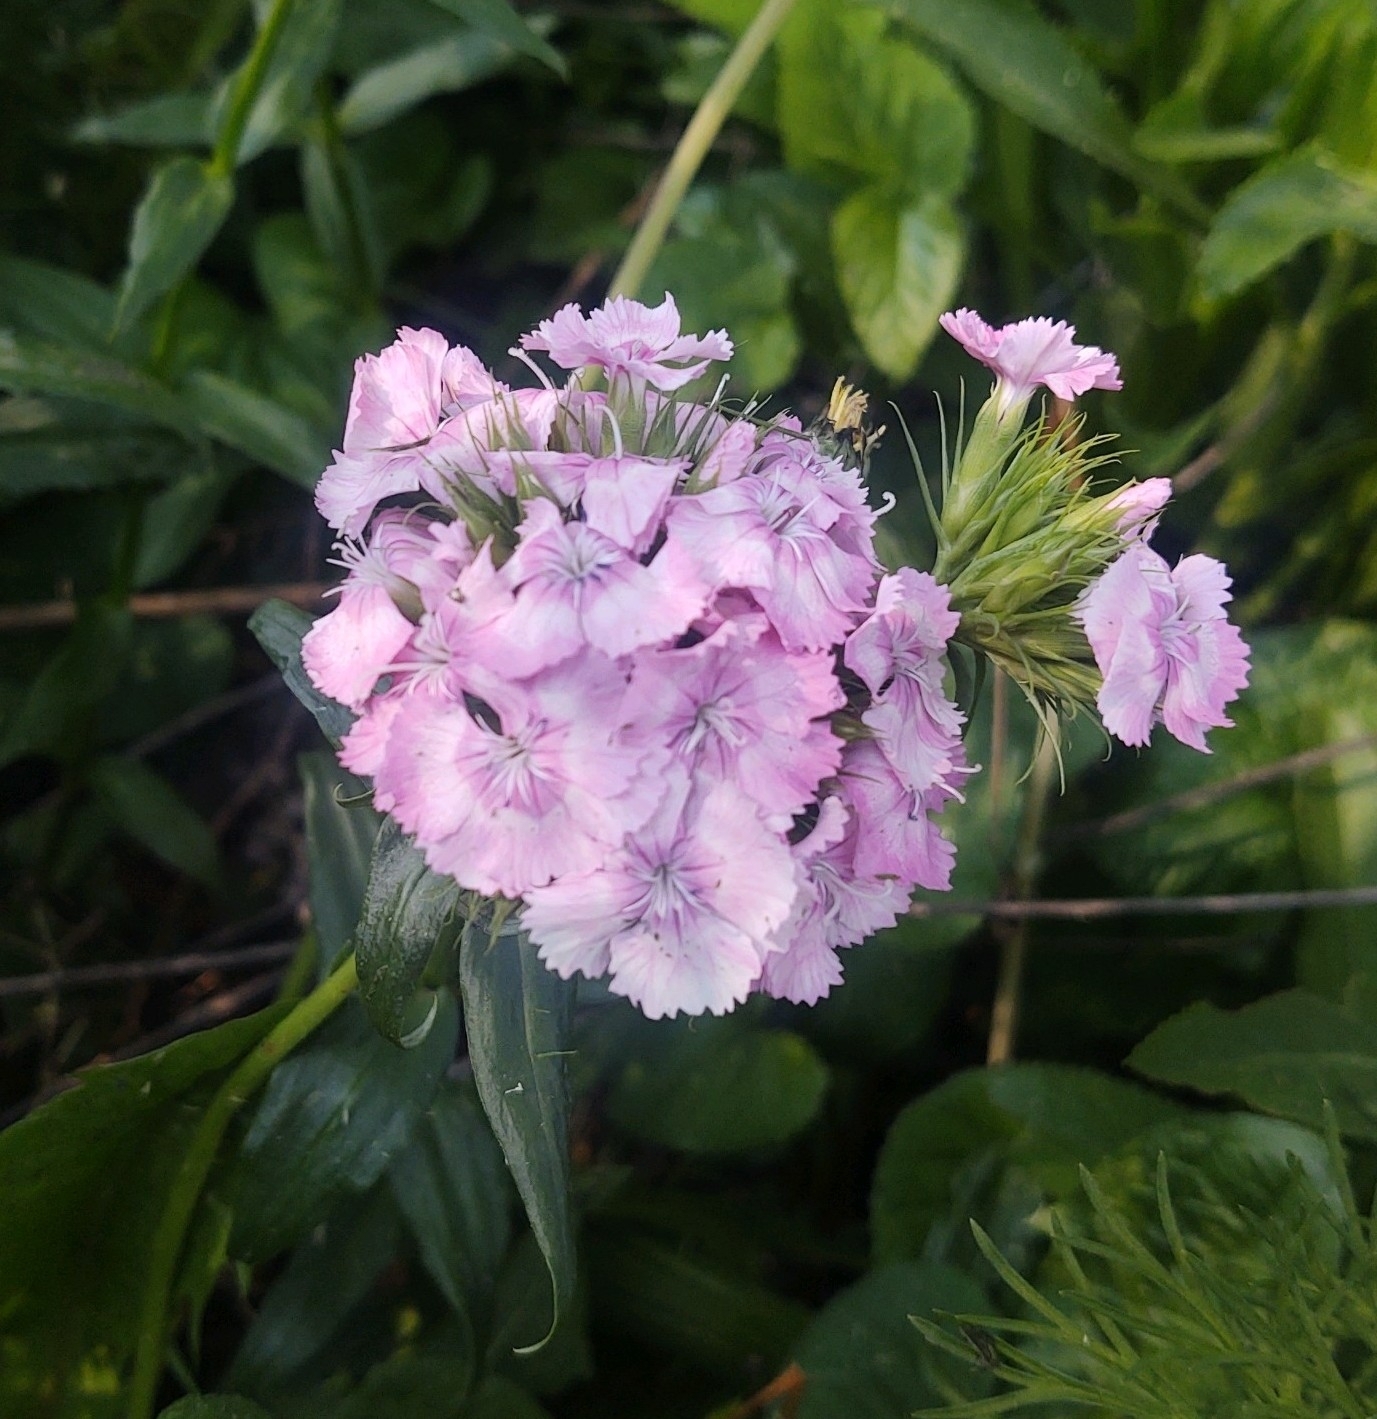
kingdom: Plantae
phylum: Tracheophyta
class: Magnoliopsida
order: Caryophyllales
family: Caryophyllaceae
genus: Dianthus
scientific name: Dianthus barbatus
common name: Sweet-william
